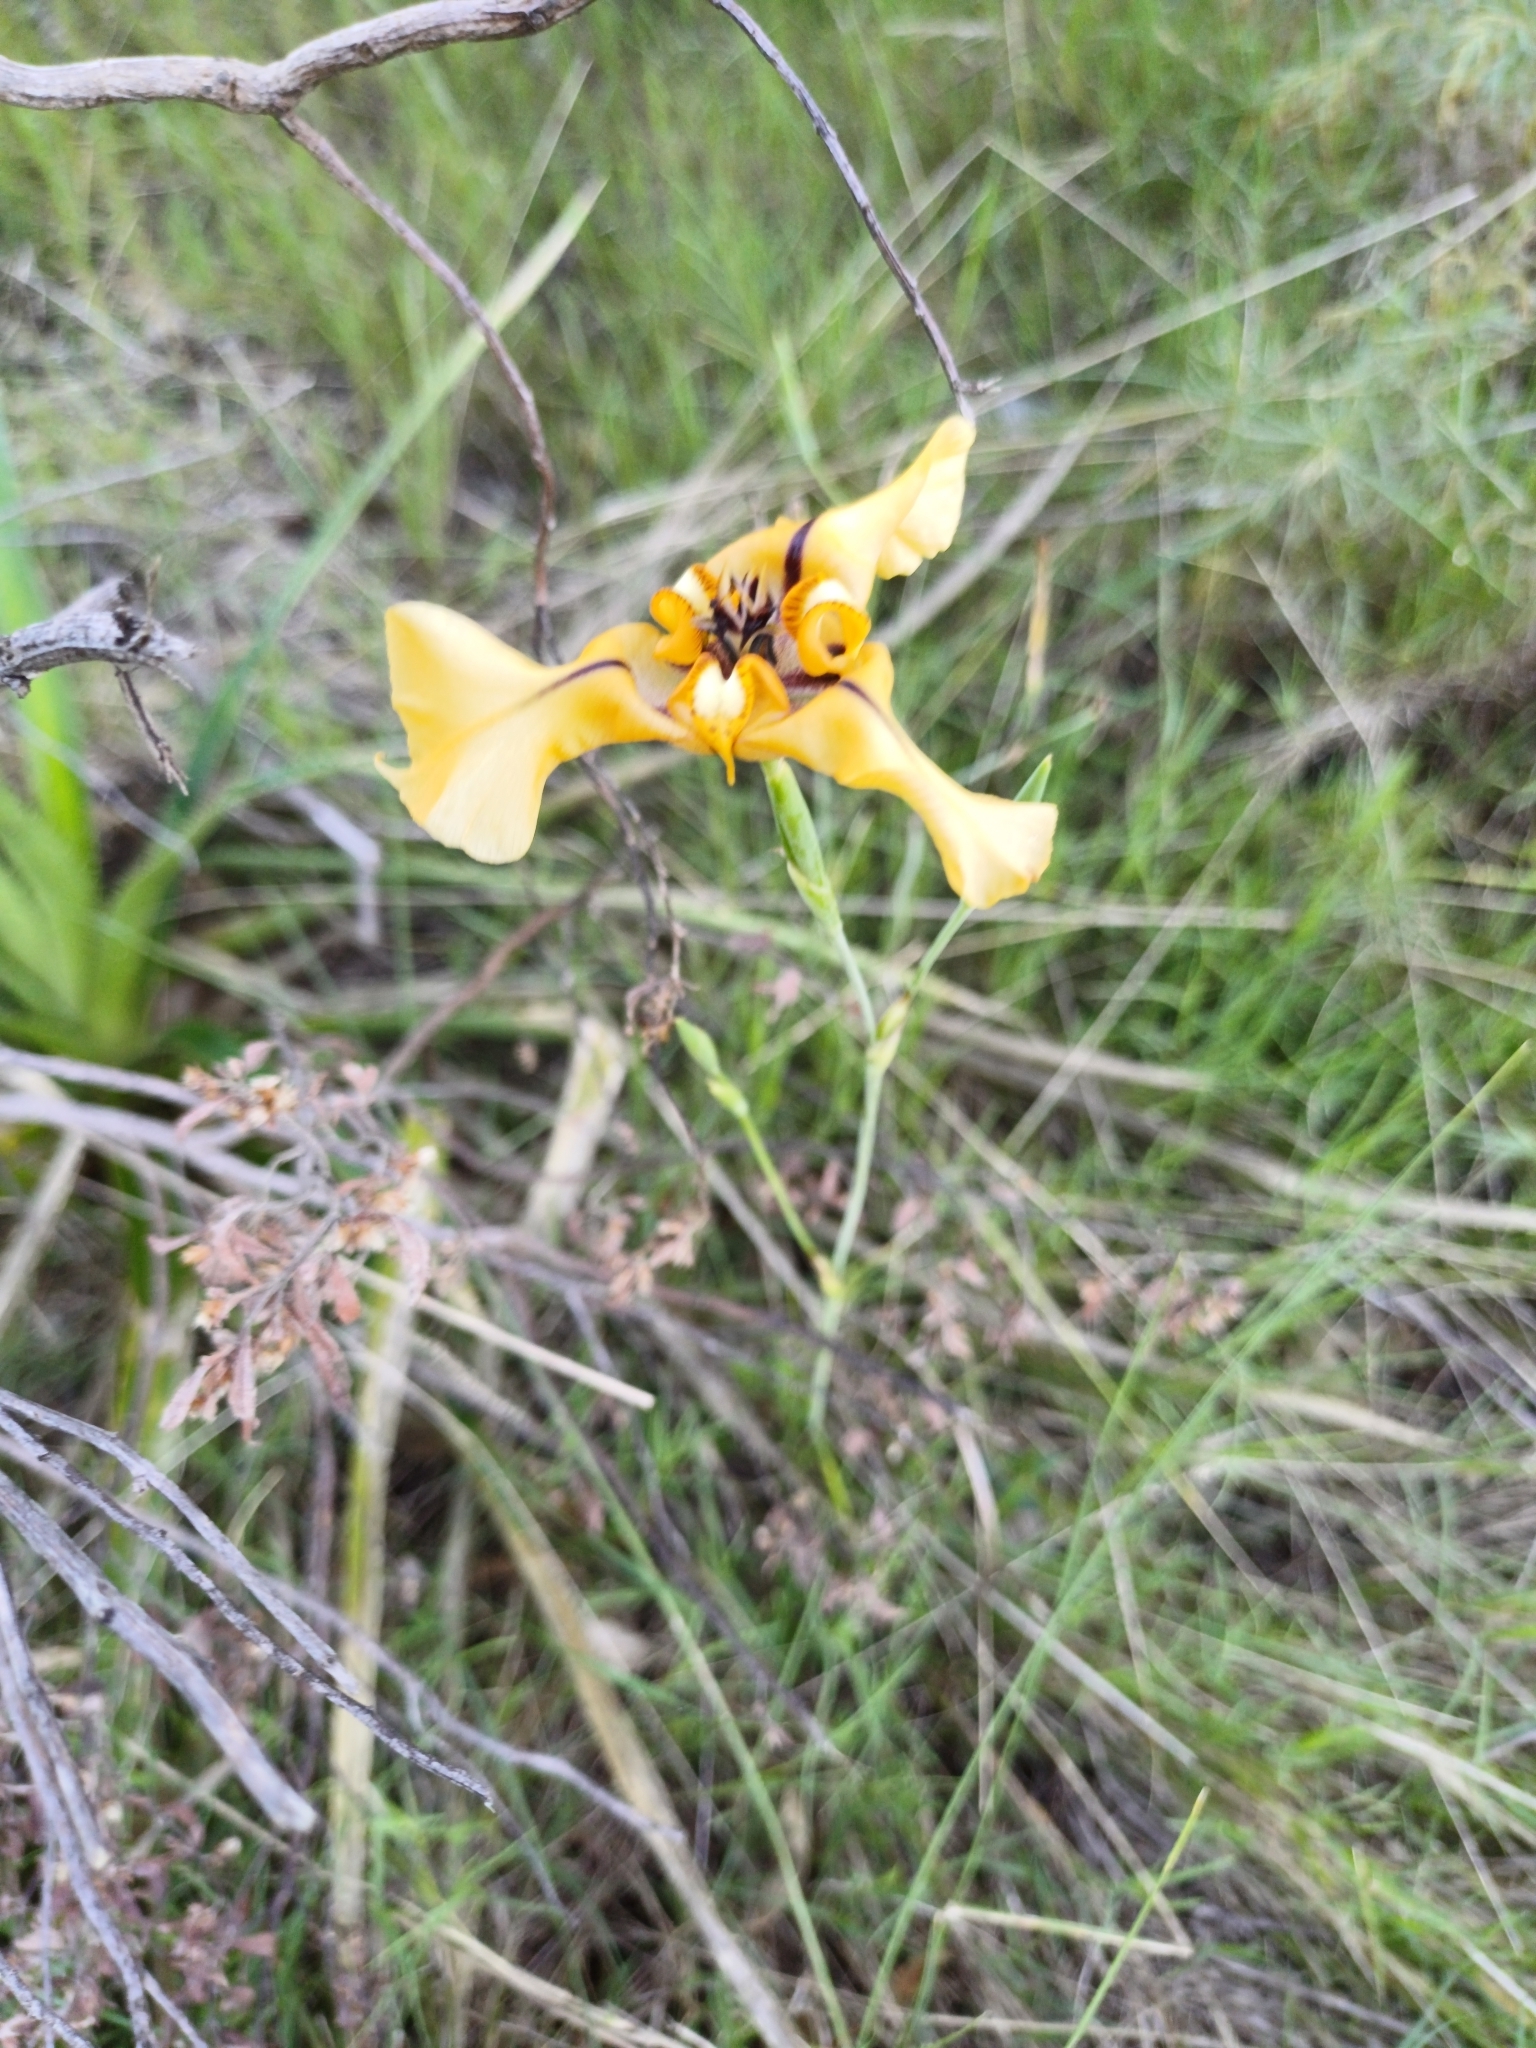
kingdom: Plantae
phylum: Tracheophyta
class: Liliopsida
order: Asparagales
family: Iridaceae
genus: Cypella
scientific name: Cypella herbertii
